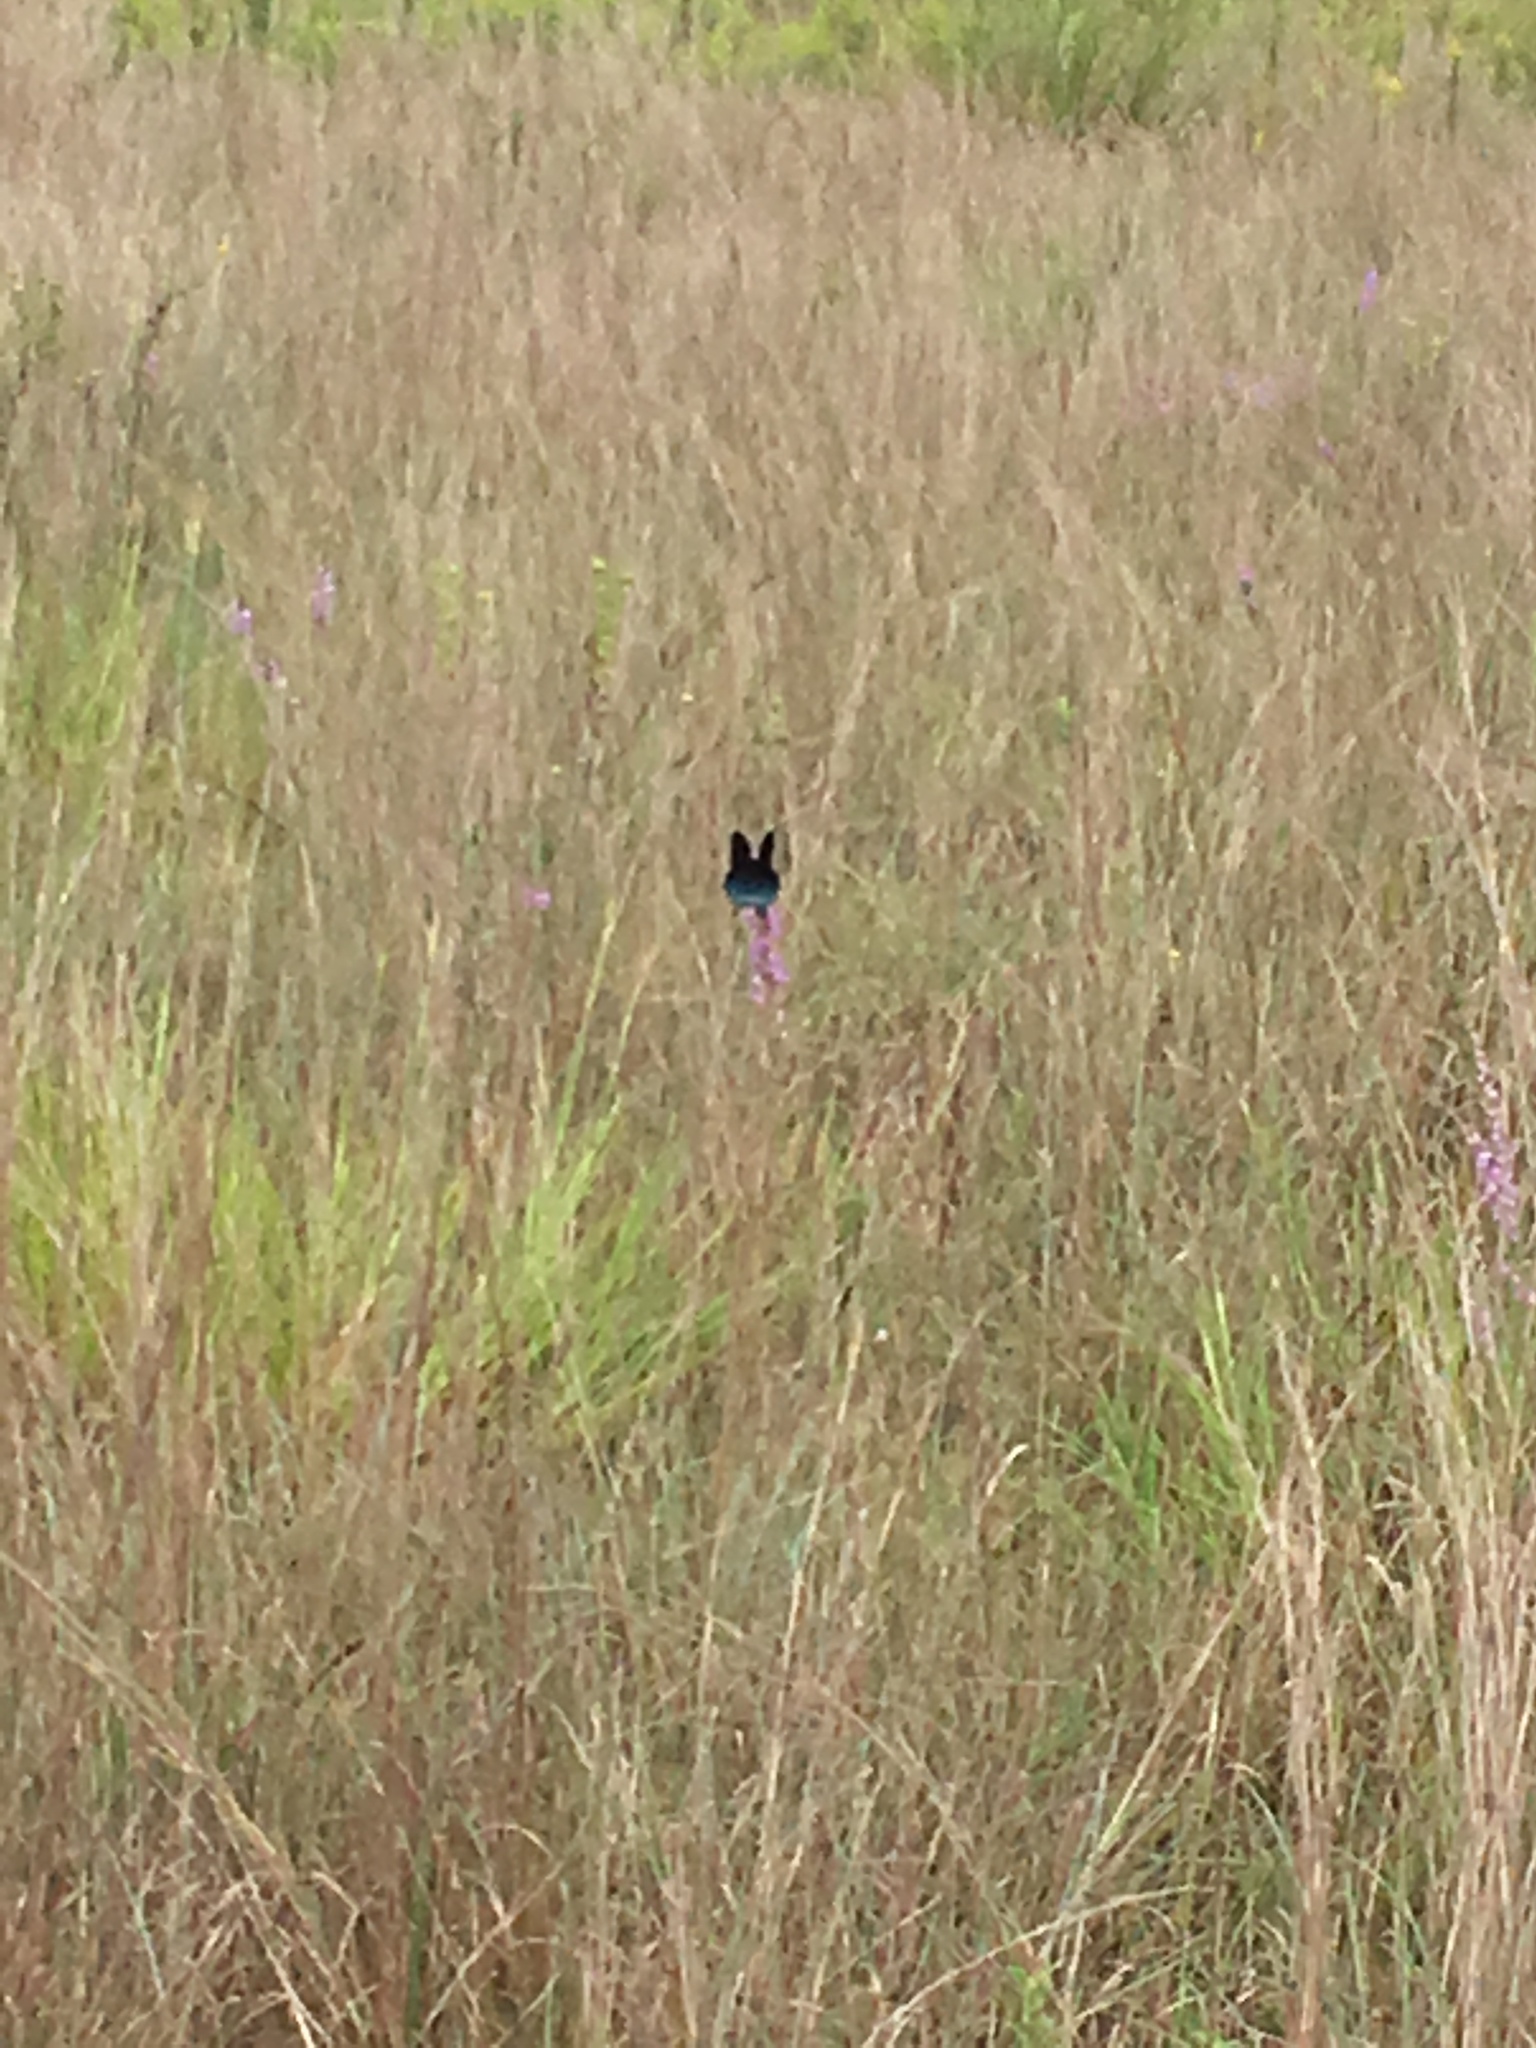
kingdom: Animalia
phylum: Arthropoda
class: Insecta
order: Lepidoptera
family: Papilionidae
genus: Battus
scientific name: Battus philenor
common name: Pipevine swallowtail
